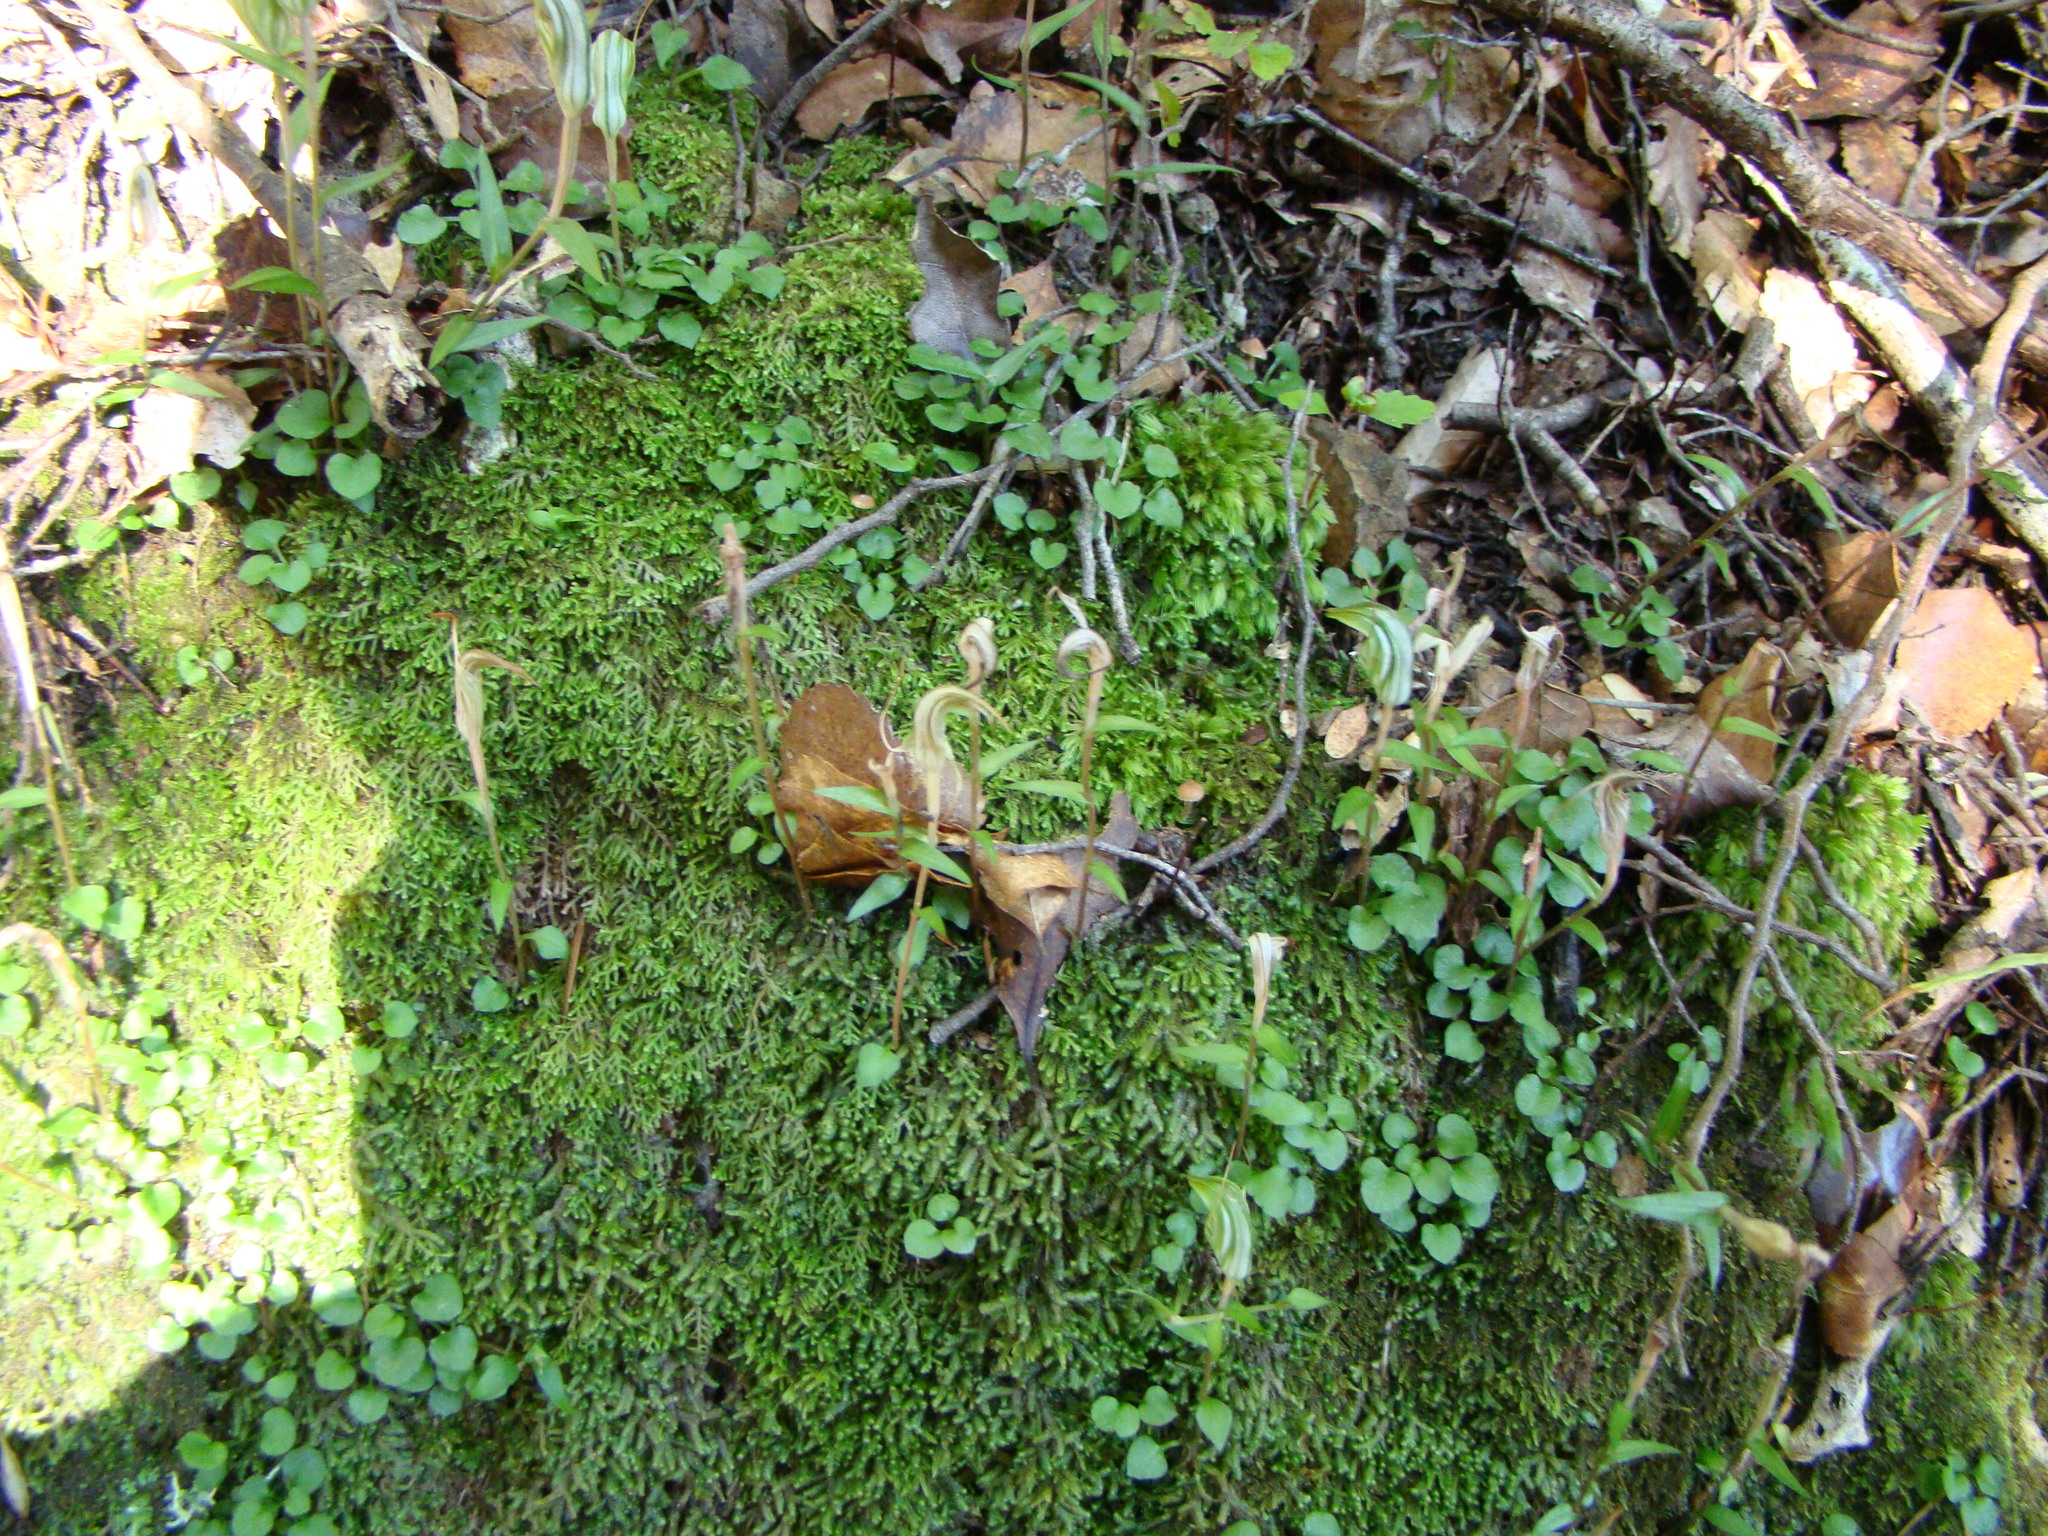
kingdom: Plantae
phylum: Tracheophyta
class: Liliopsida
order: Asparagales
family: Orchidaceae
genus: Pterostylis
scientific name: Pterostylis alobula
